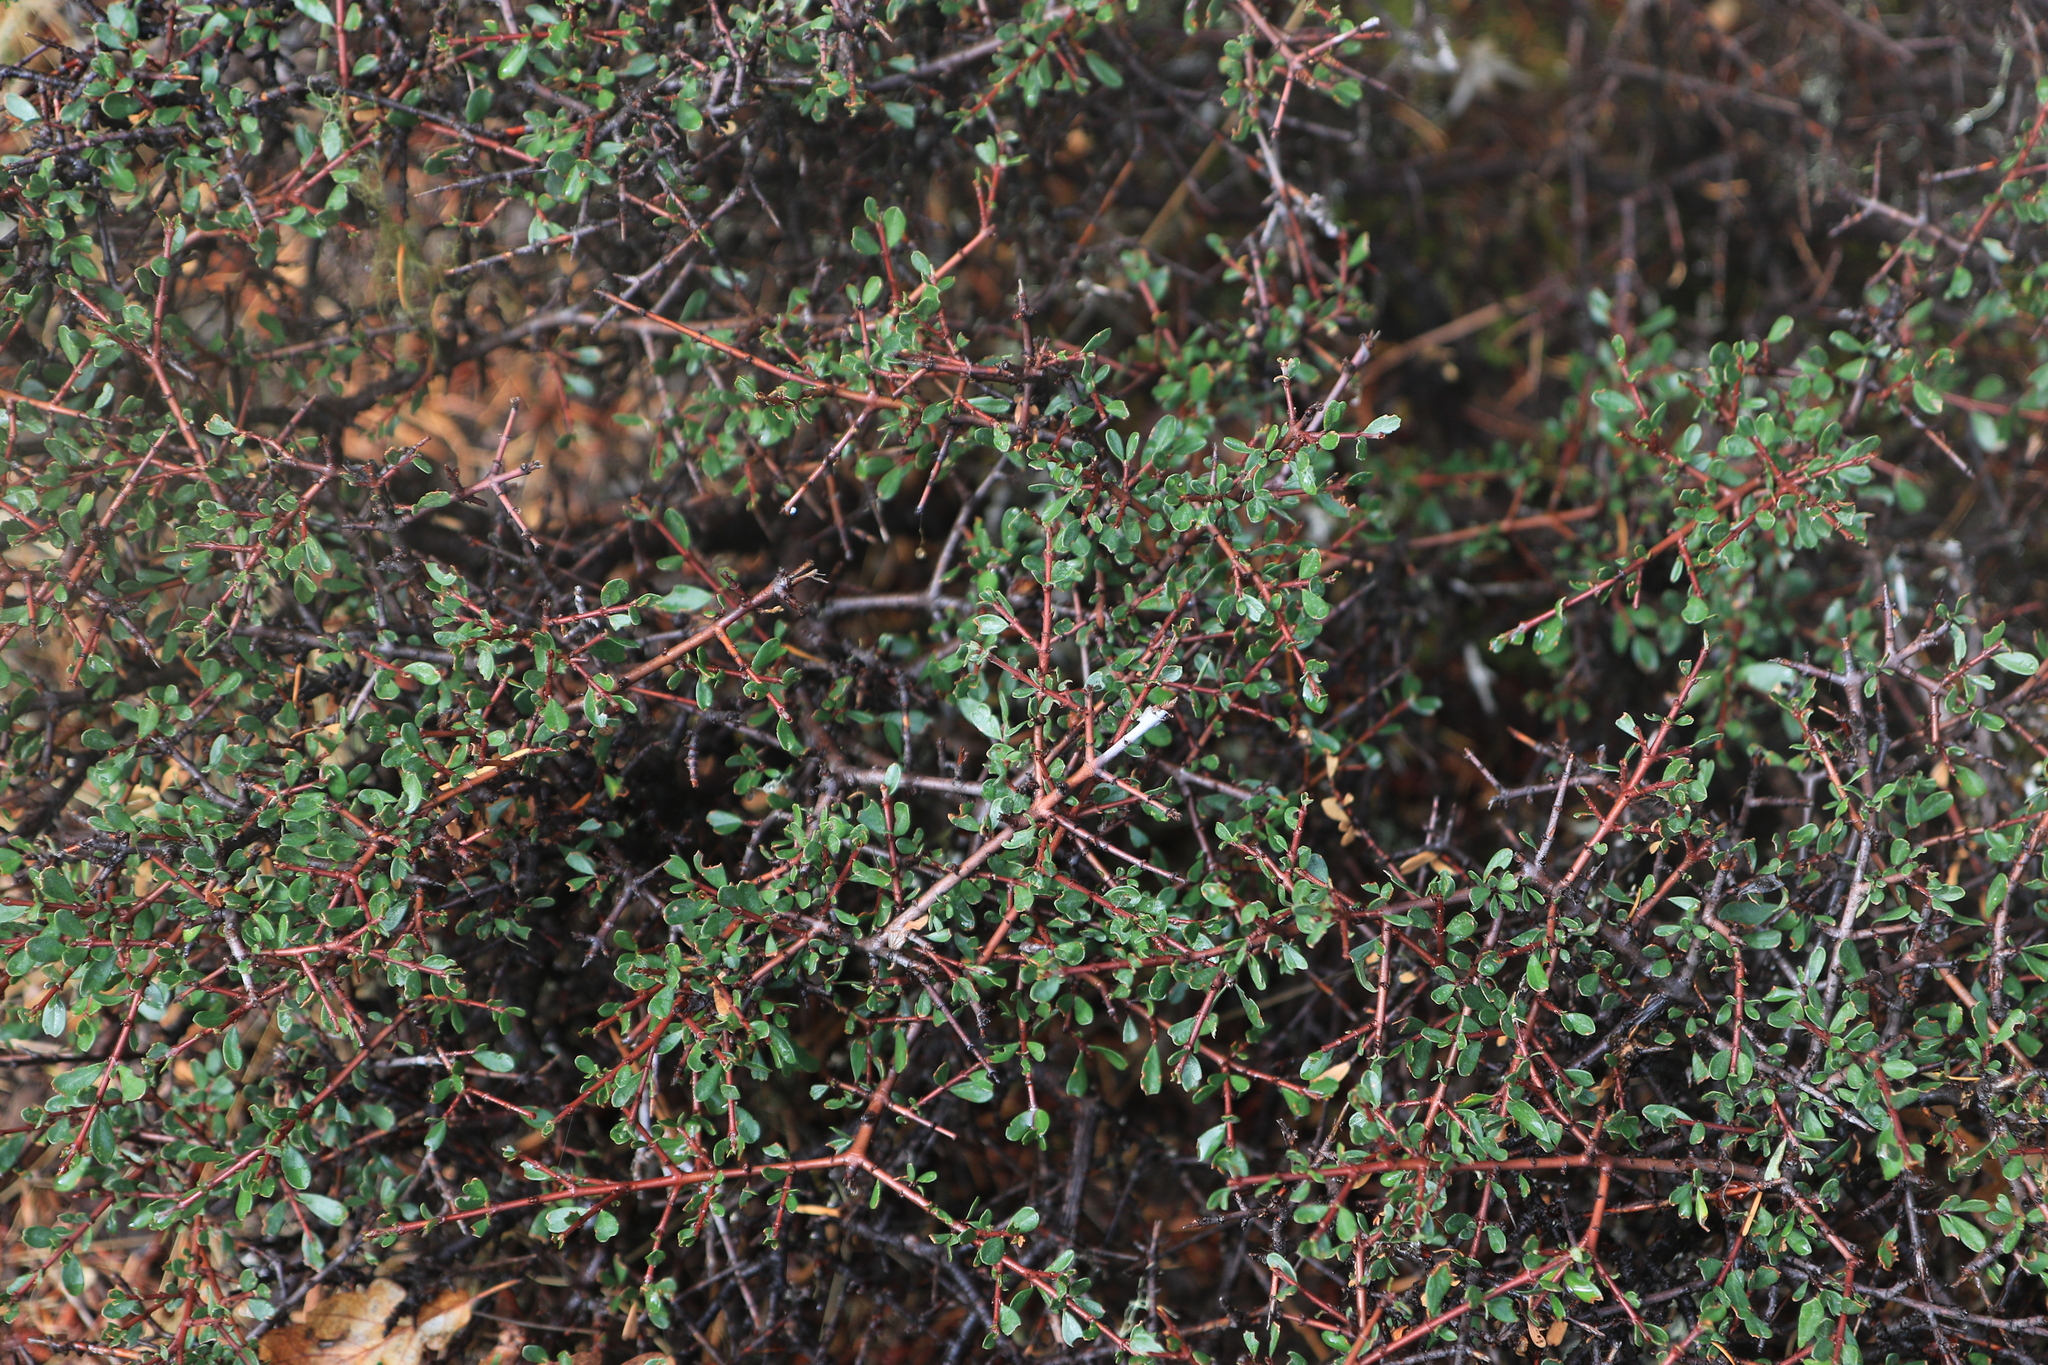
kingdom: Plantae
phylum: Tracheophyta
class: Magnoliopsida
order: Rosales
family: Rhamnaceae
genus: Ceanothus
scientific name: Ceanothus cuneatus
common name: Cuneate ceanothus
